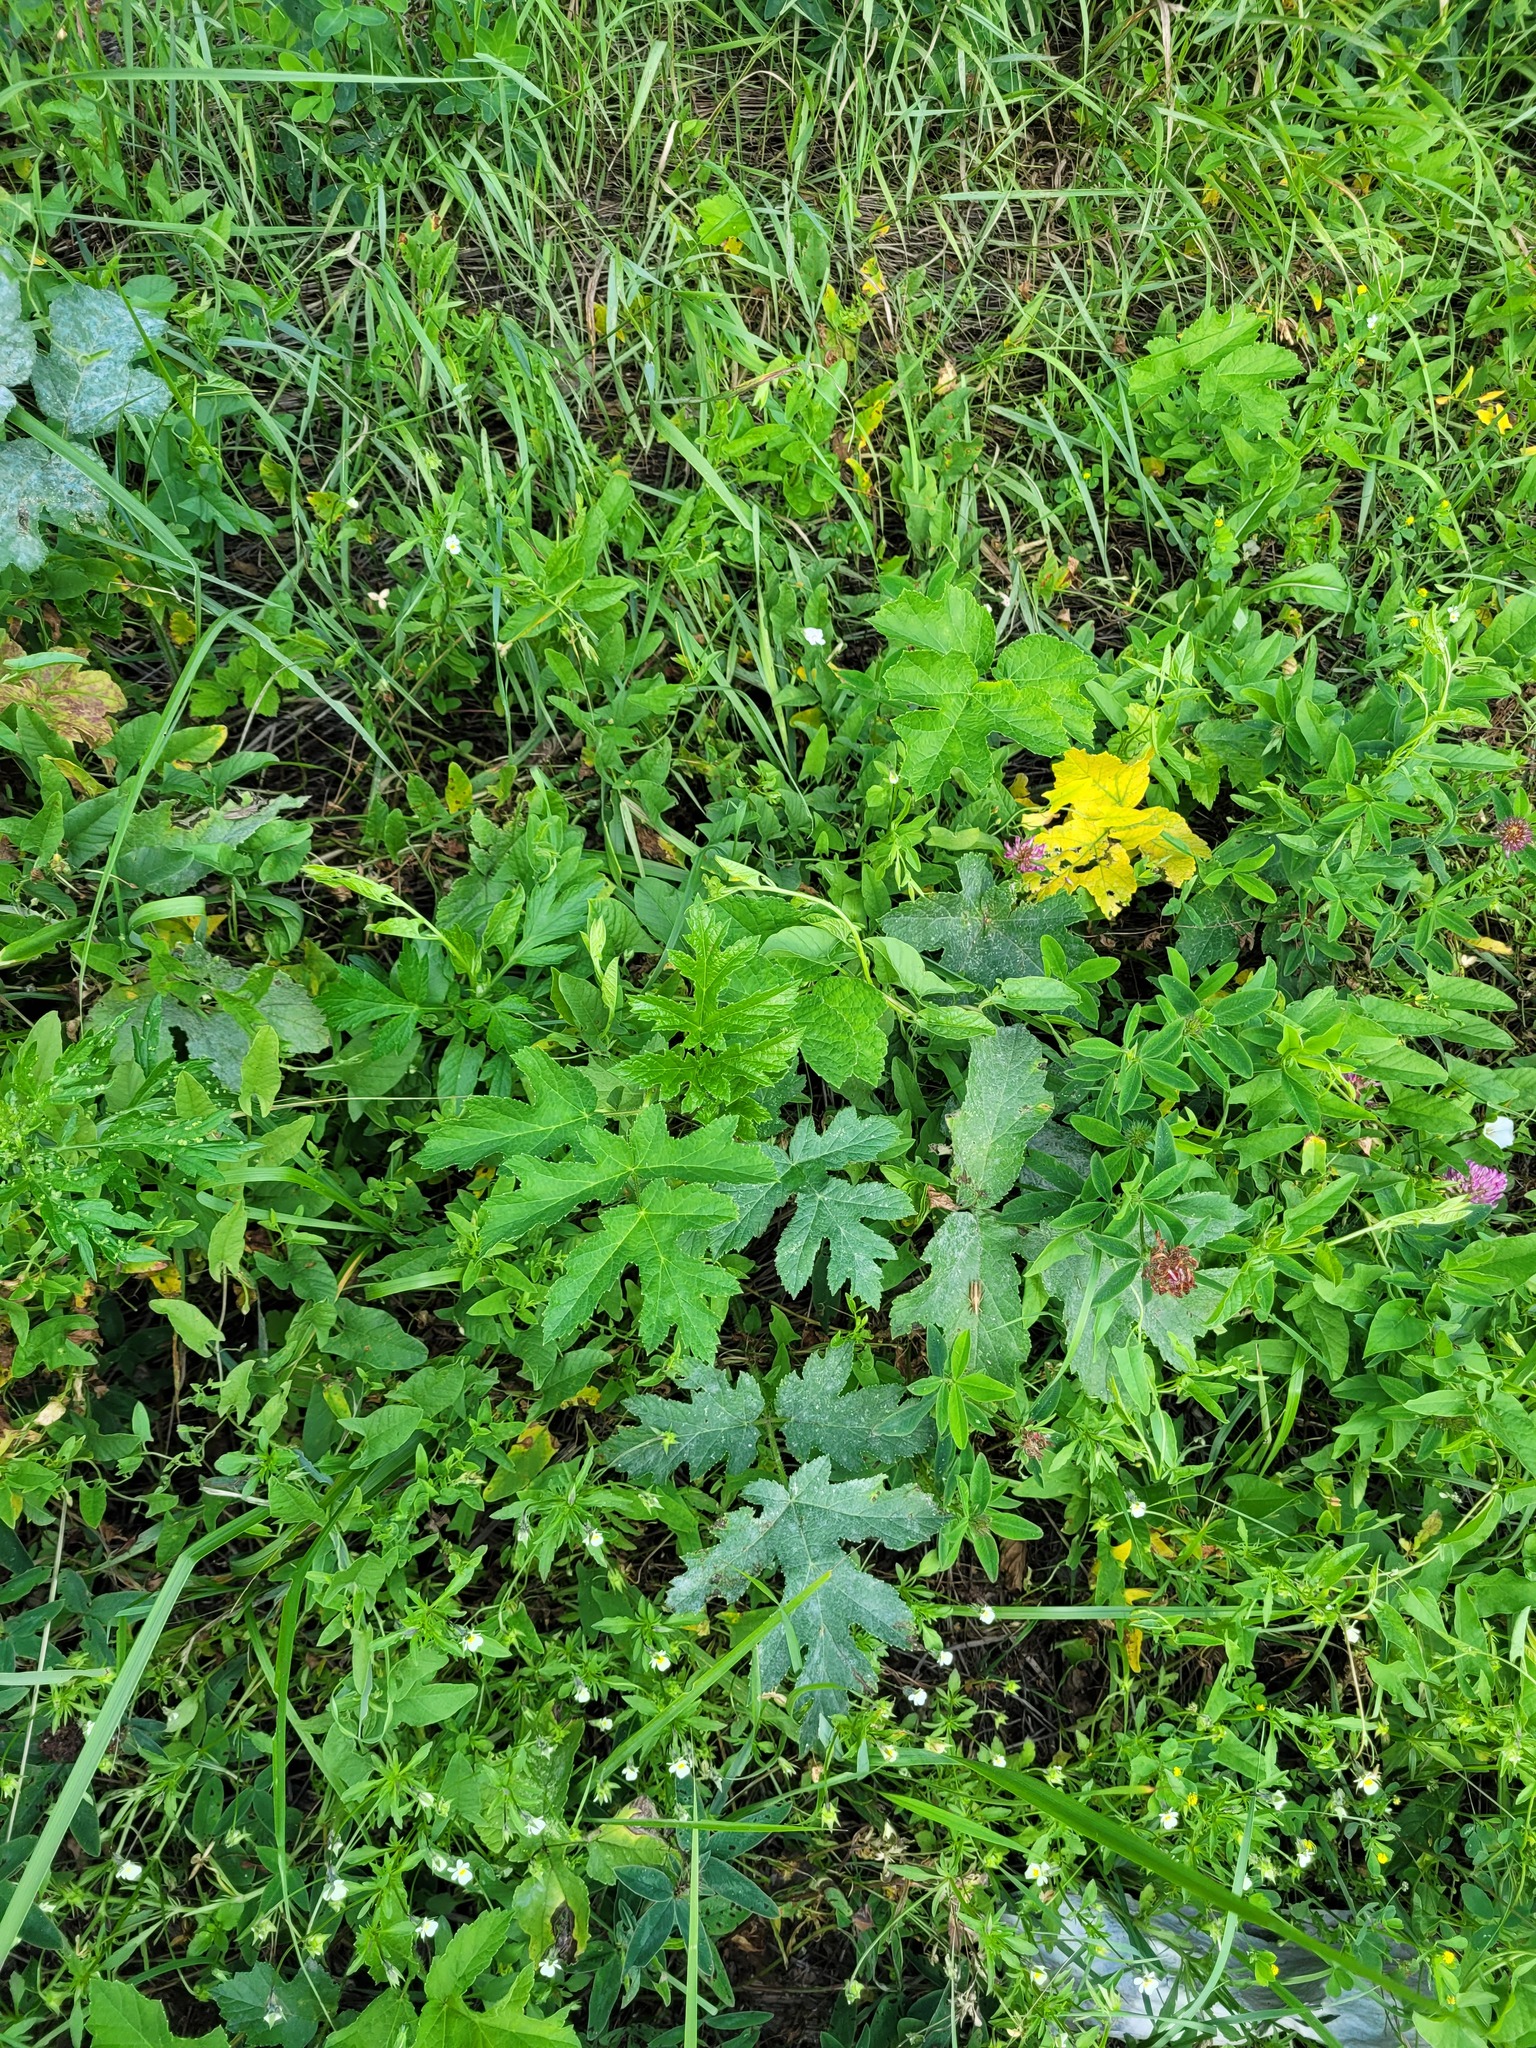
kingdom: Plantae
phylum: Tracheophyta
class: Magnoliopsida
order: Apiales
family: Apiaceae
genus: Heracleum
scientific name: Heracleum sphondylium
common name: Hogweed
